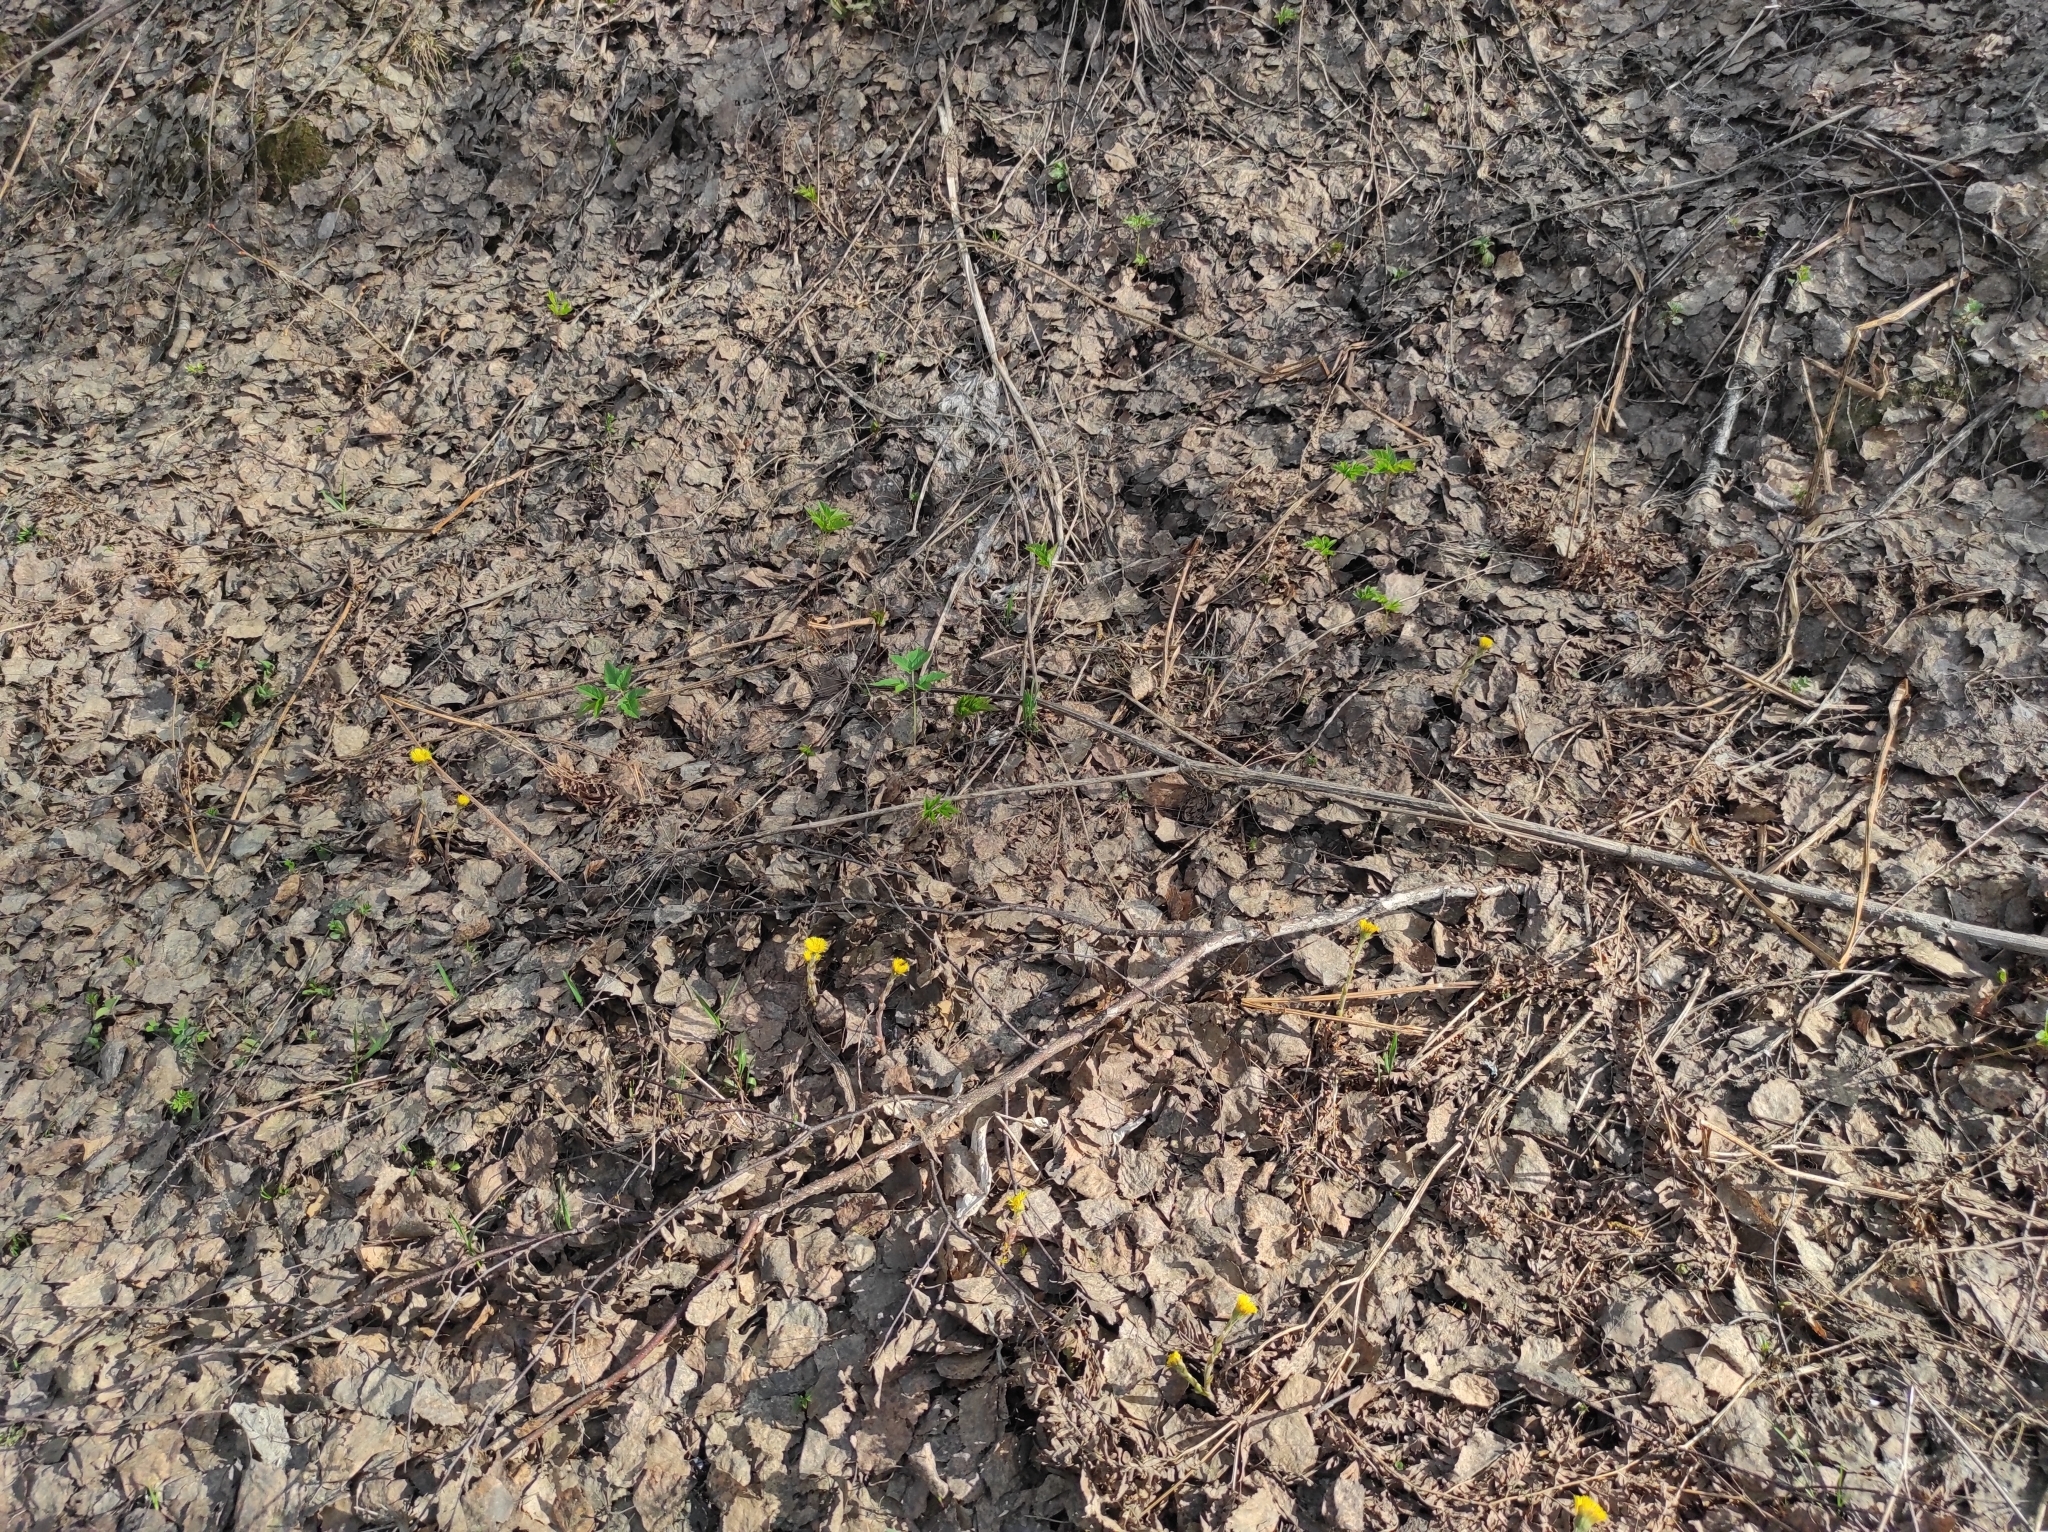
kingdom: Plantae
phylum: Tracheophyta
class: Magnoliopsida
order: Asterales
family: Asteraceae
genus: Tussilago
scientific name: Tussilago farfara
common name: Coltsfoot
